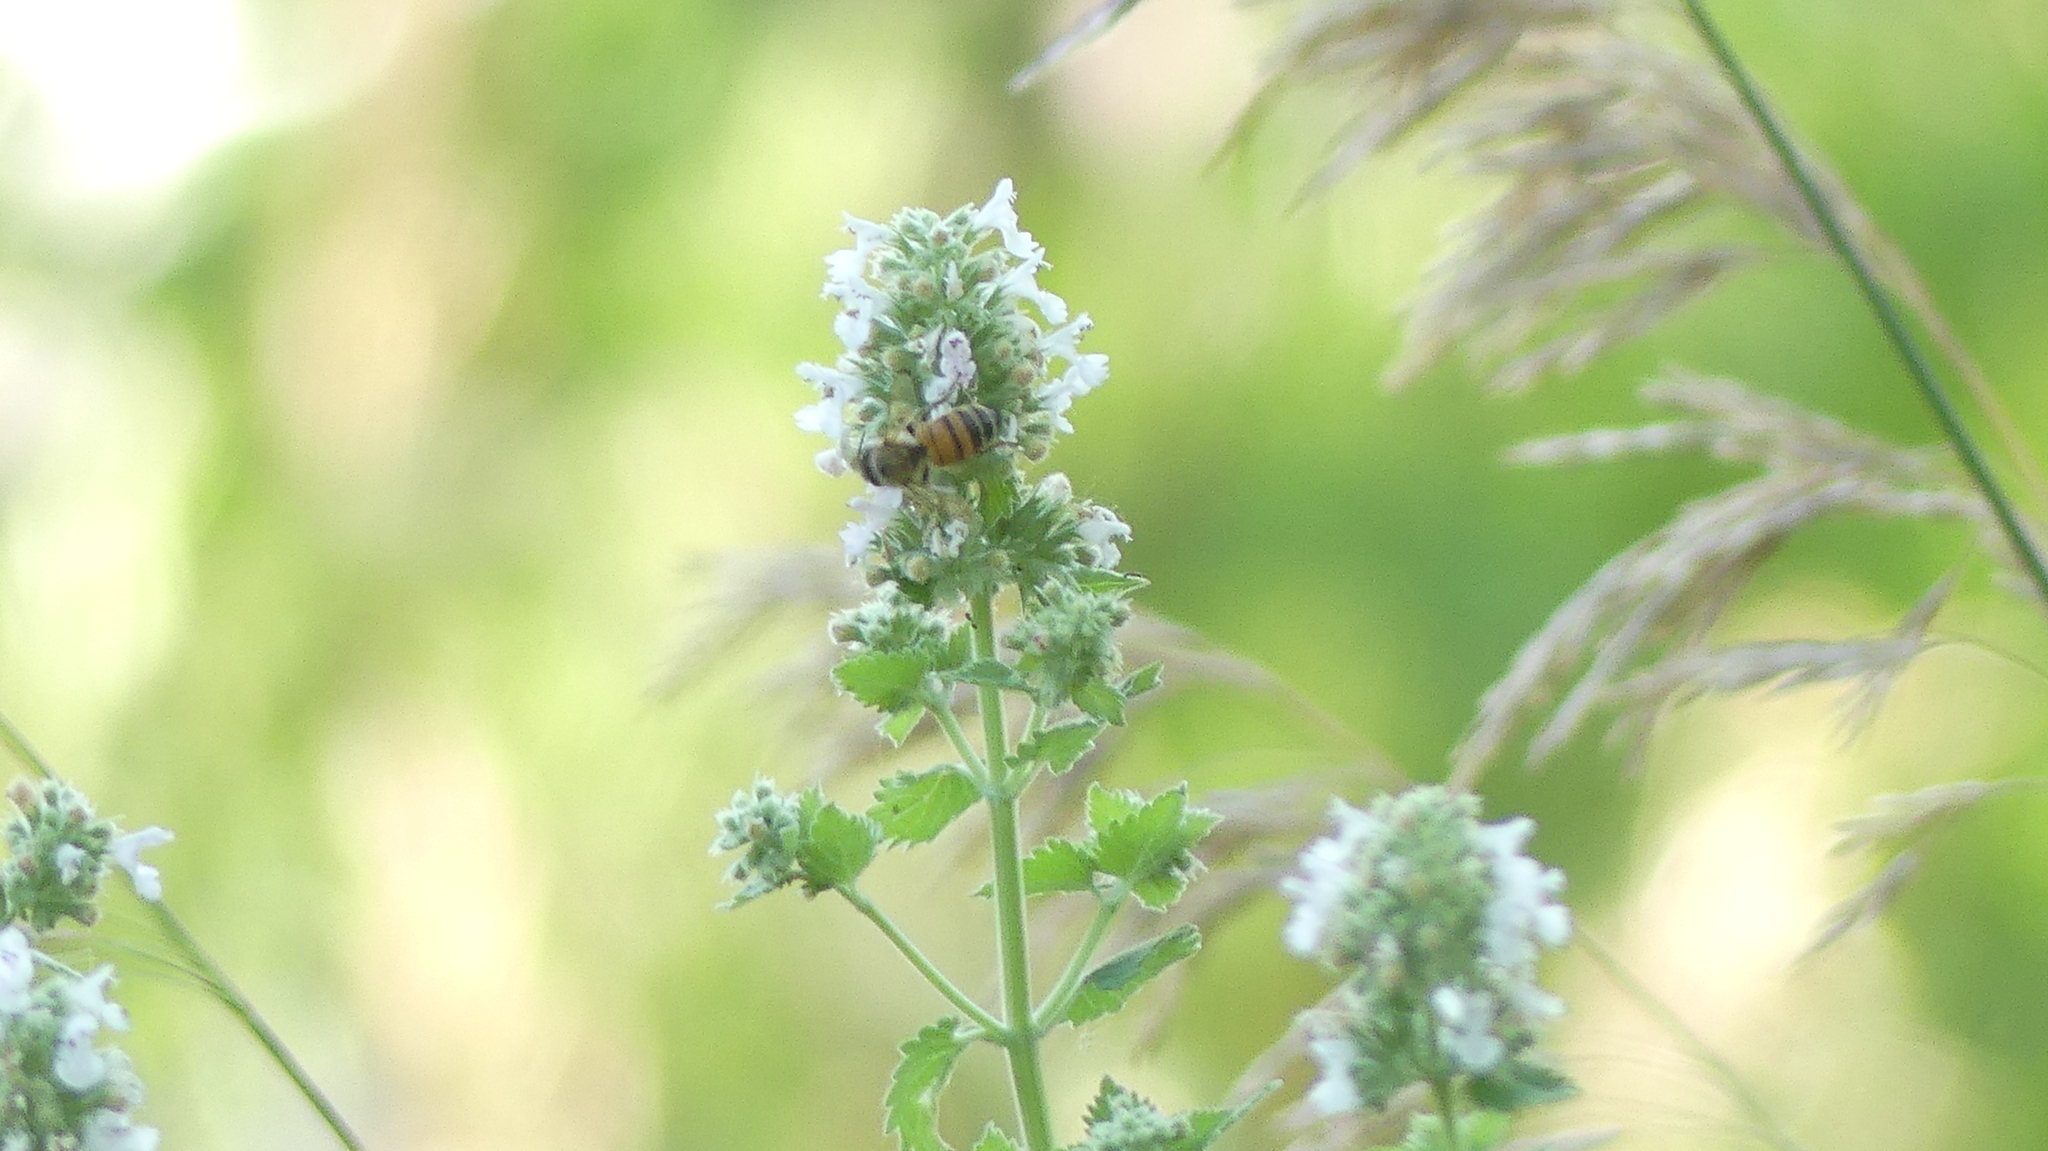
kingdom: Animalia
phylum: Arthropoda
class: Insecta
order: Hymenoptera
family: Apidae
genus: Apis
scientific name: Apis mellifera
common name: Honey bee
